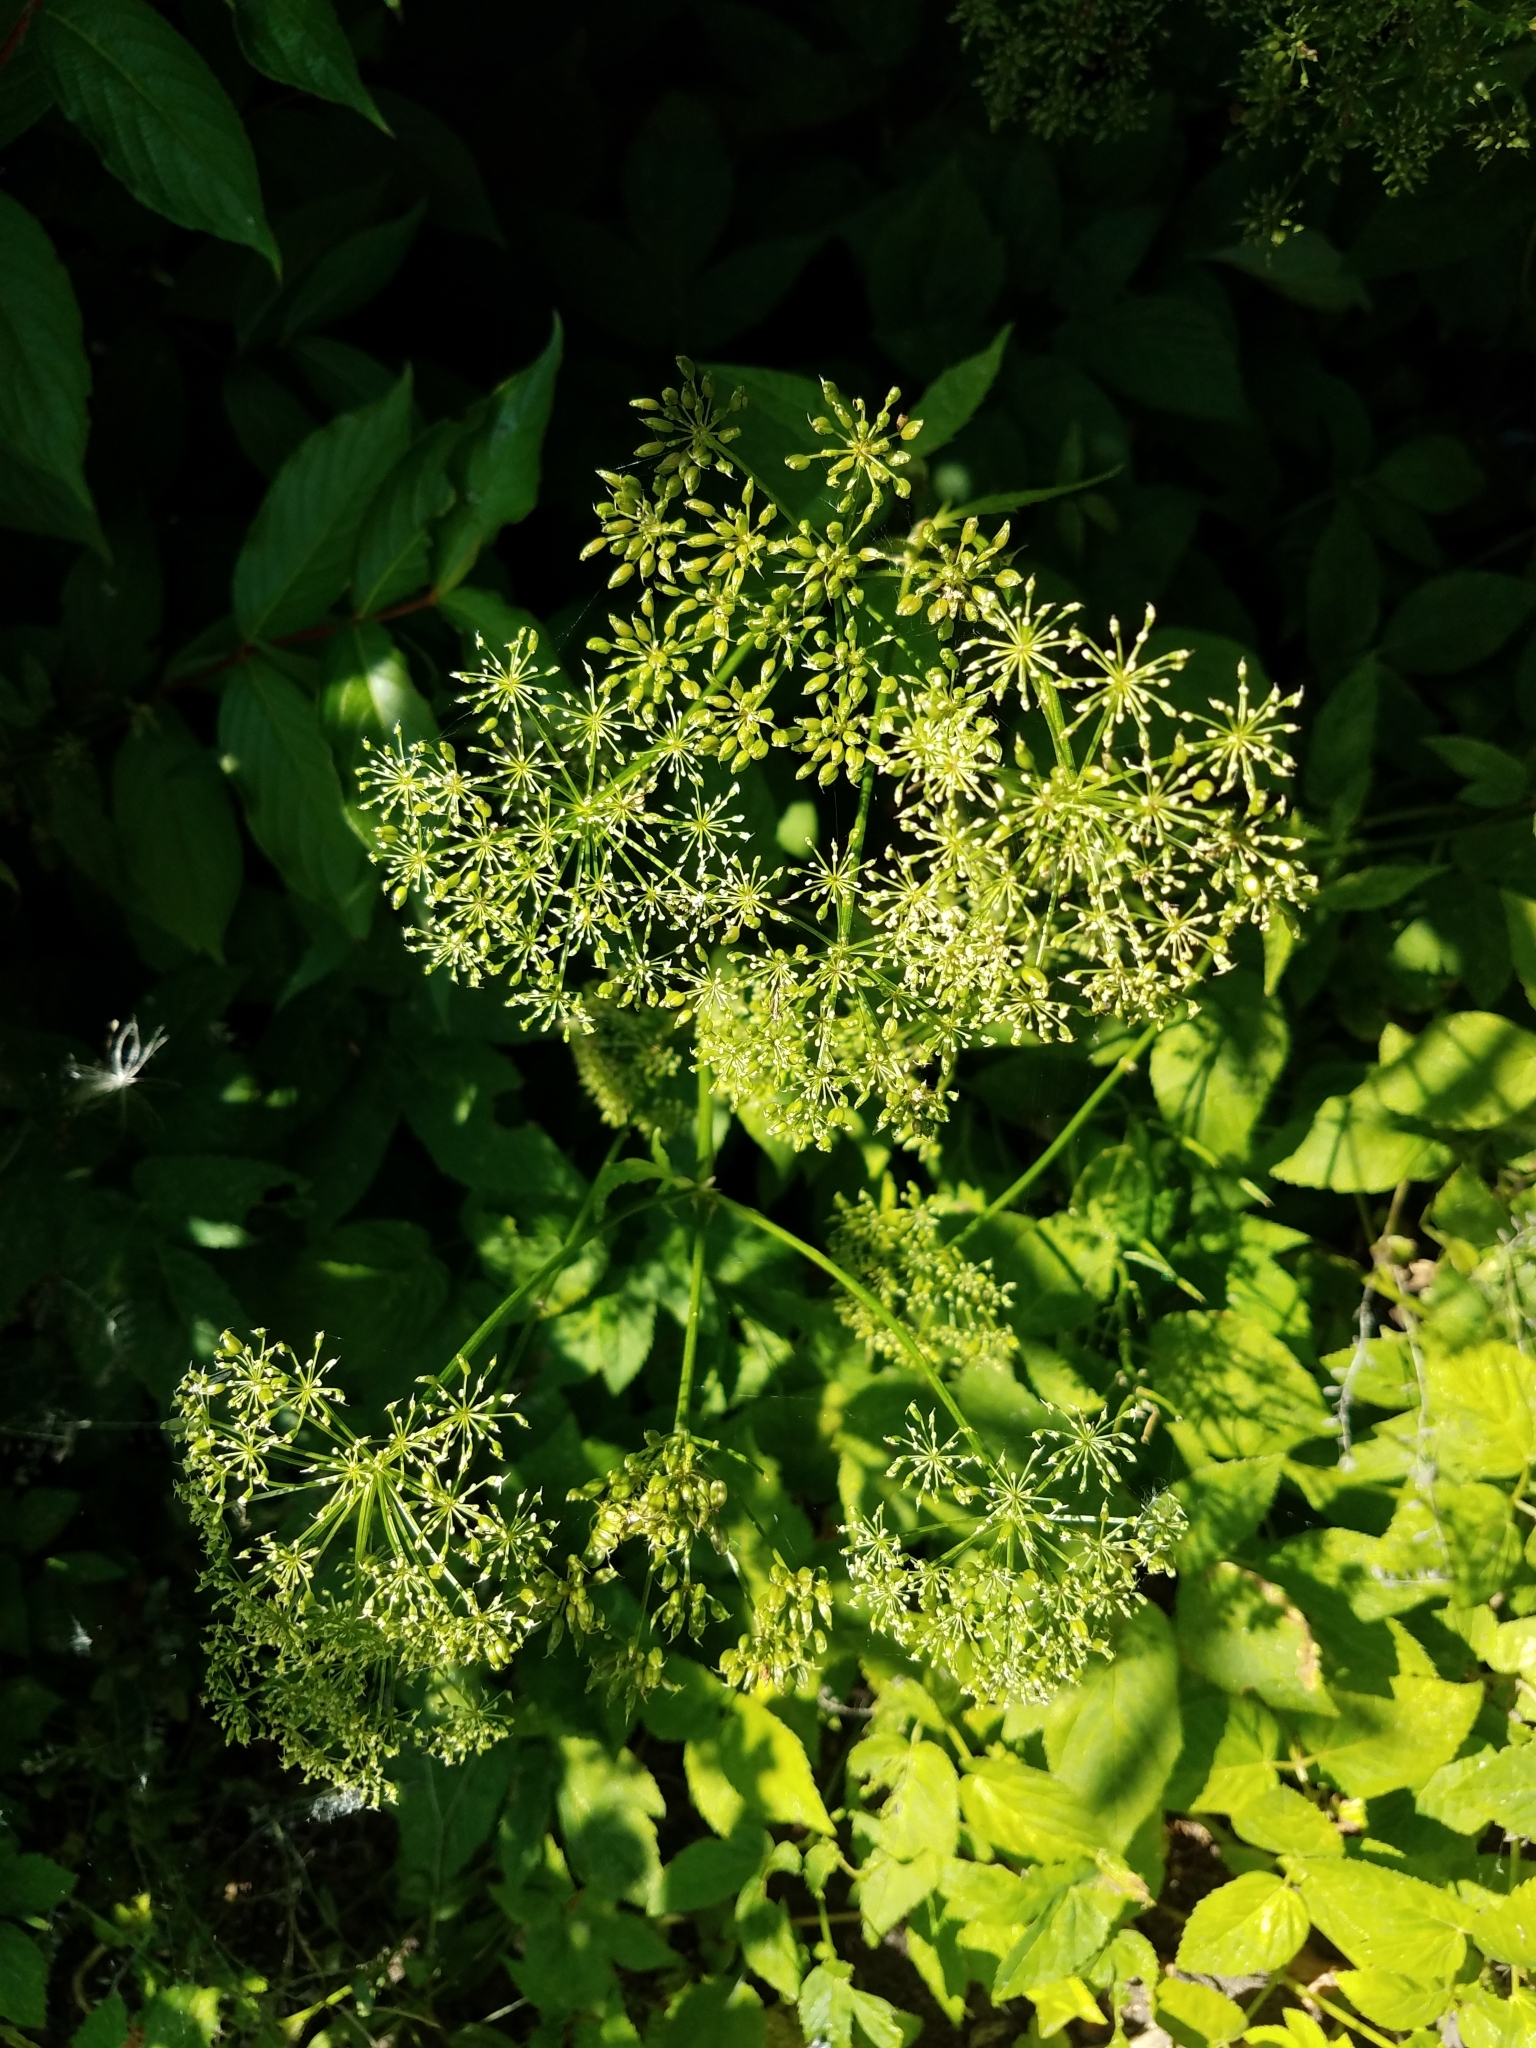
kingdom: Plantae
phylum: Tracheophyta
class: Magnoliopsida
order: Apiales
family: Apiaceae
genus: Aegopodium
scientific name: Aegopodium podagraria
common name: Ground-elder
